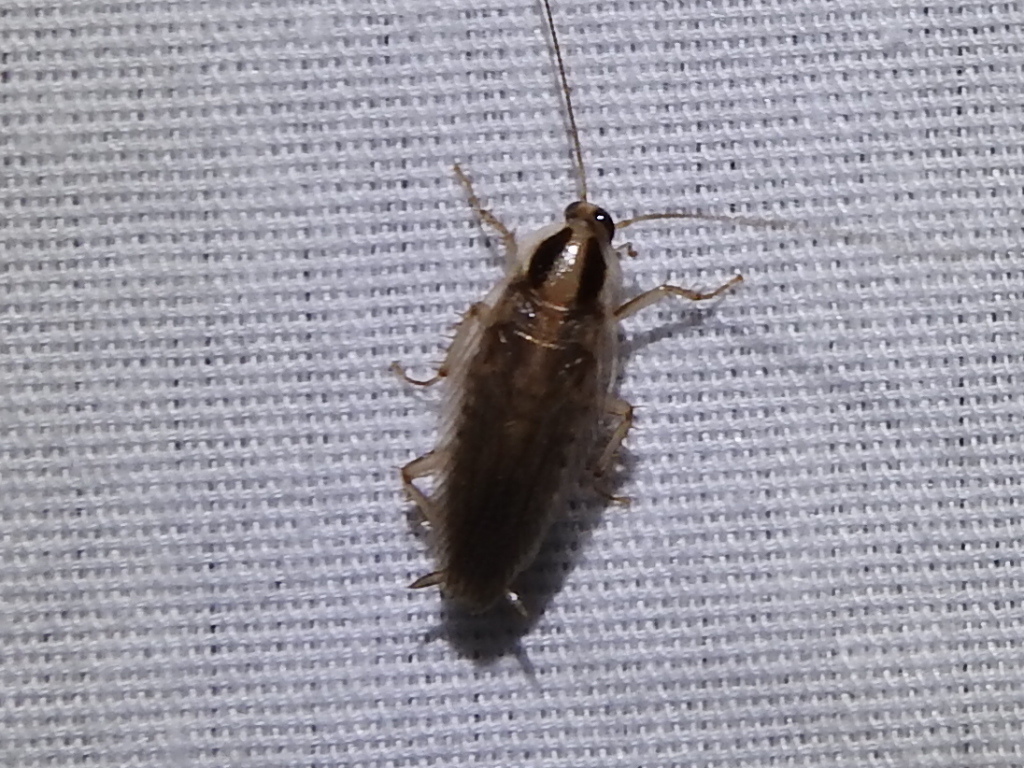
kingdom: Animalia
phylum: Arthropoda
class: Insecta
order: Blattodea
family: Ectobiidae
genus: Blattella
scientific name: Blattella vaga
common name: Field cockroach
